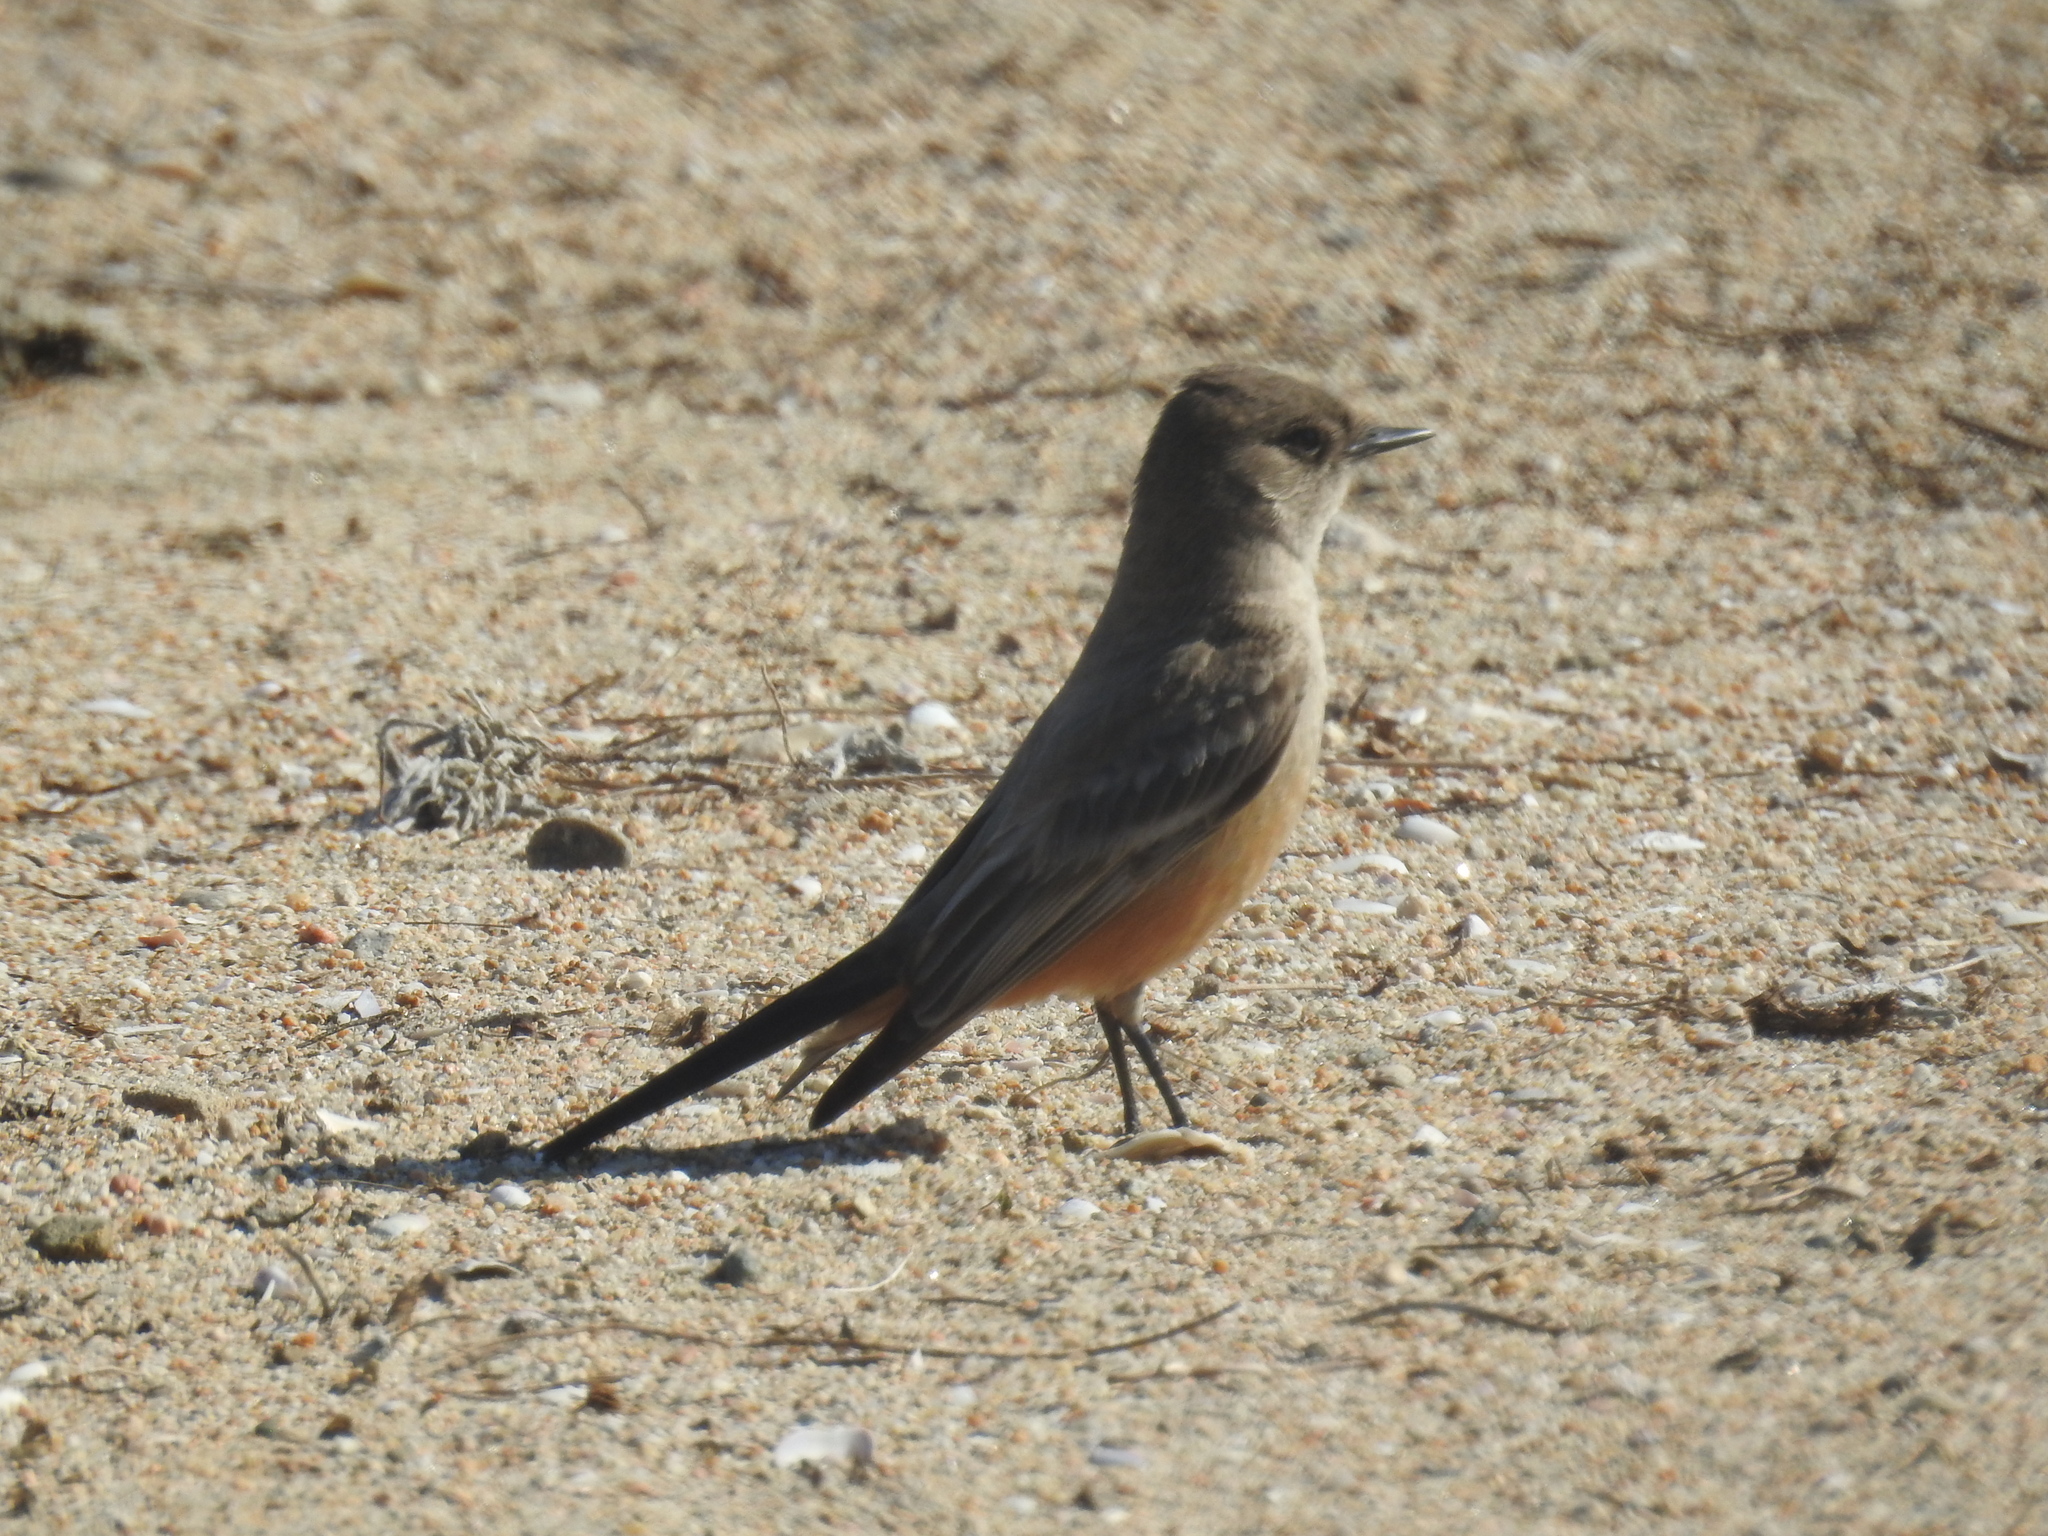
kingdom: Animalia
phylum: Chordata
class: Aves
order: Passeriformes
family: Tyrannidae
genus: Sayornis
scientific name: Sayornis saya
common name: Say's phoebe
